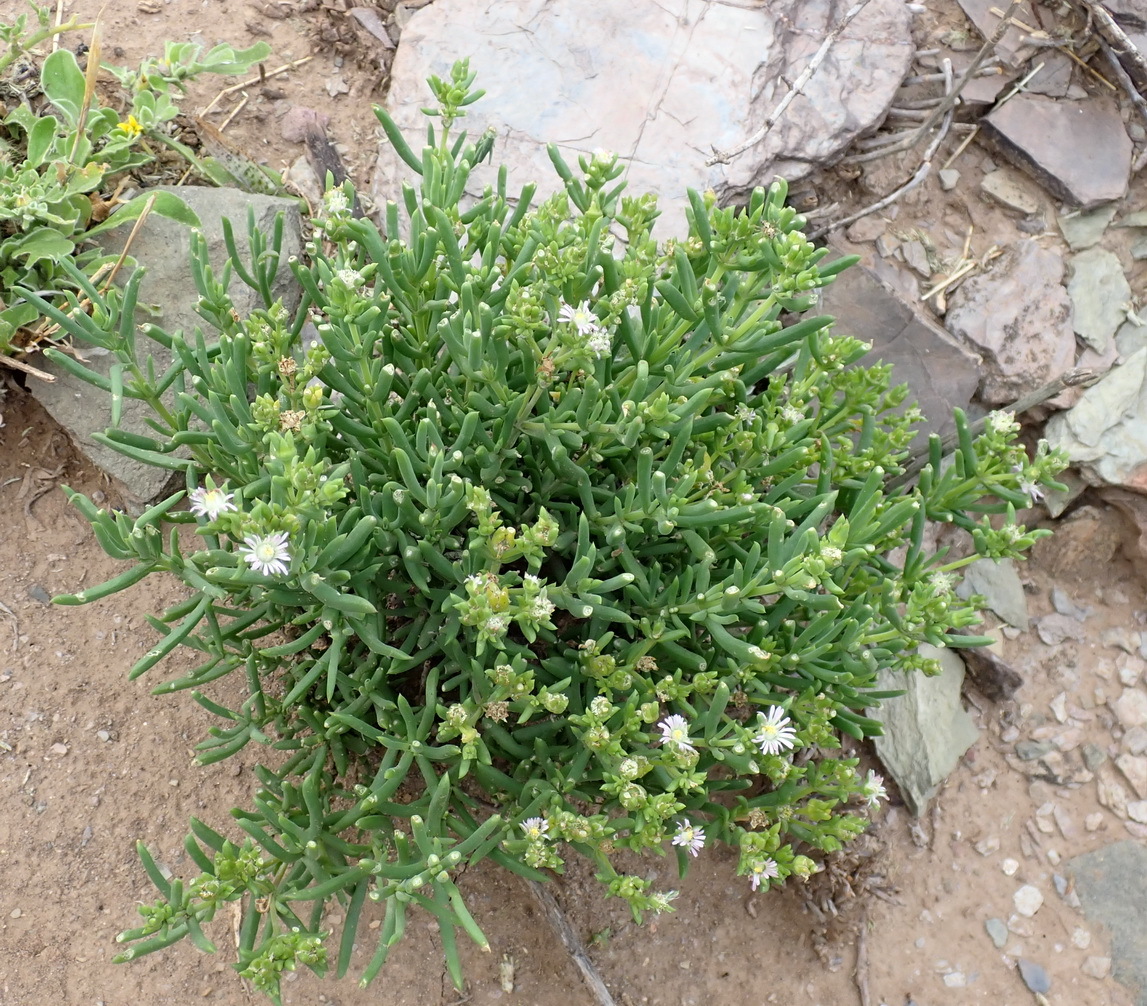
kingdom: Plantae
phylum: Tracheophyta
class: Magnoliopsida
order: Caryophyllales
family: Aizoaceae
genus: Delosperma
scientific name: Delosperma subincanum
